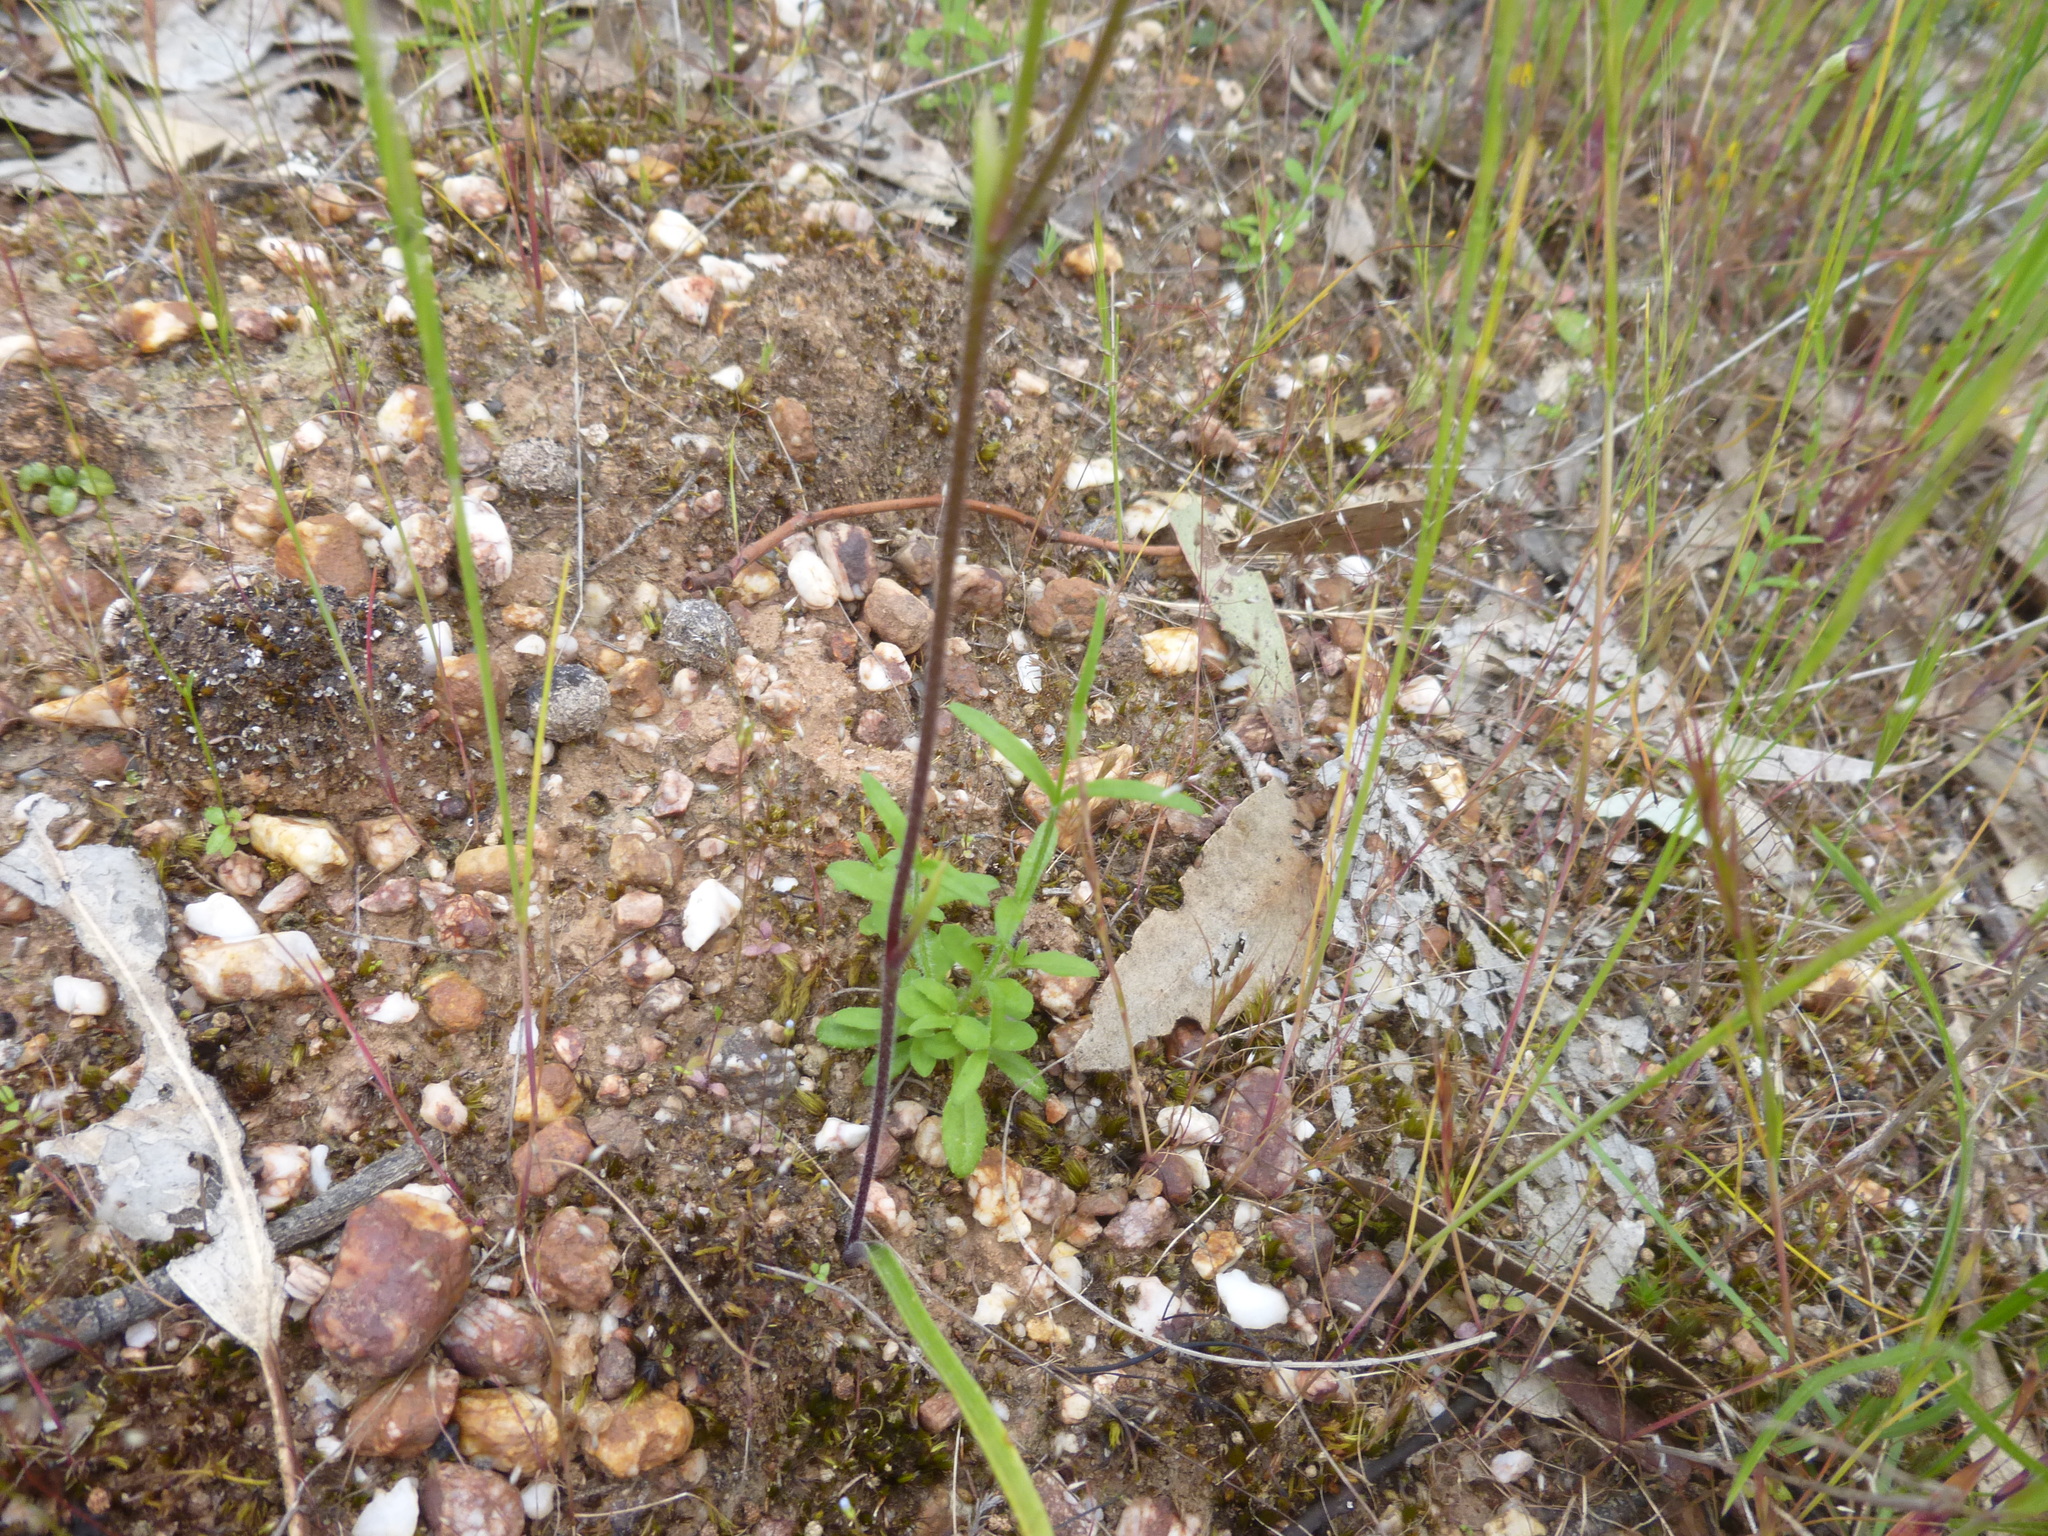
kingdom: Plantae
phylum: Tracheophyta
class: Liliopsida
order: Asparagales
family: Orchidaceae
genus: Caladenia
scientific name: Caladenia carnea
